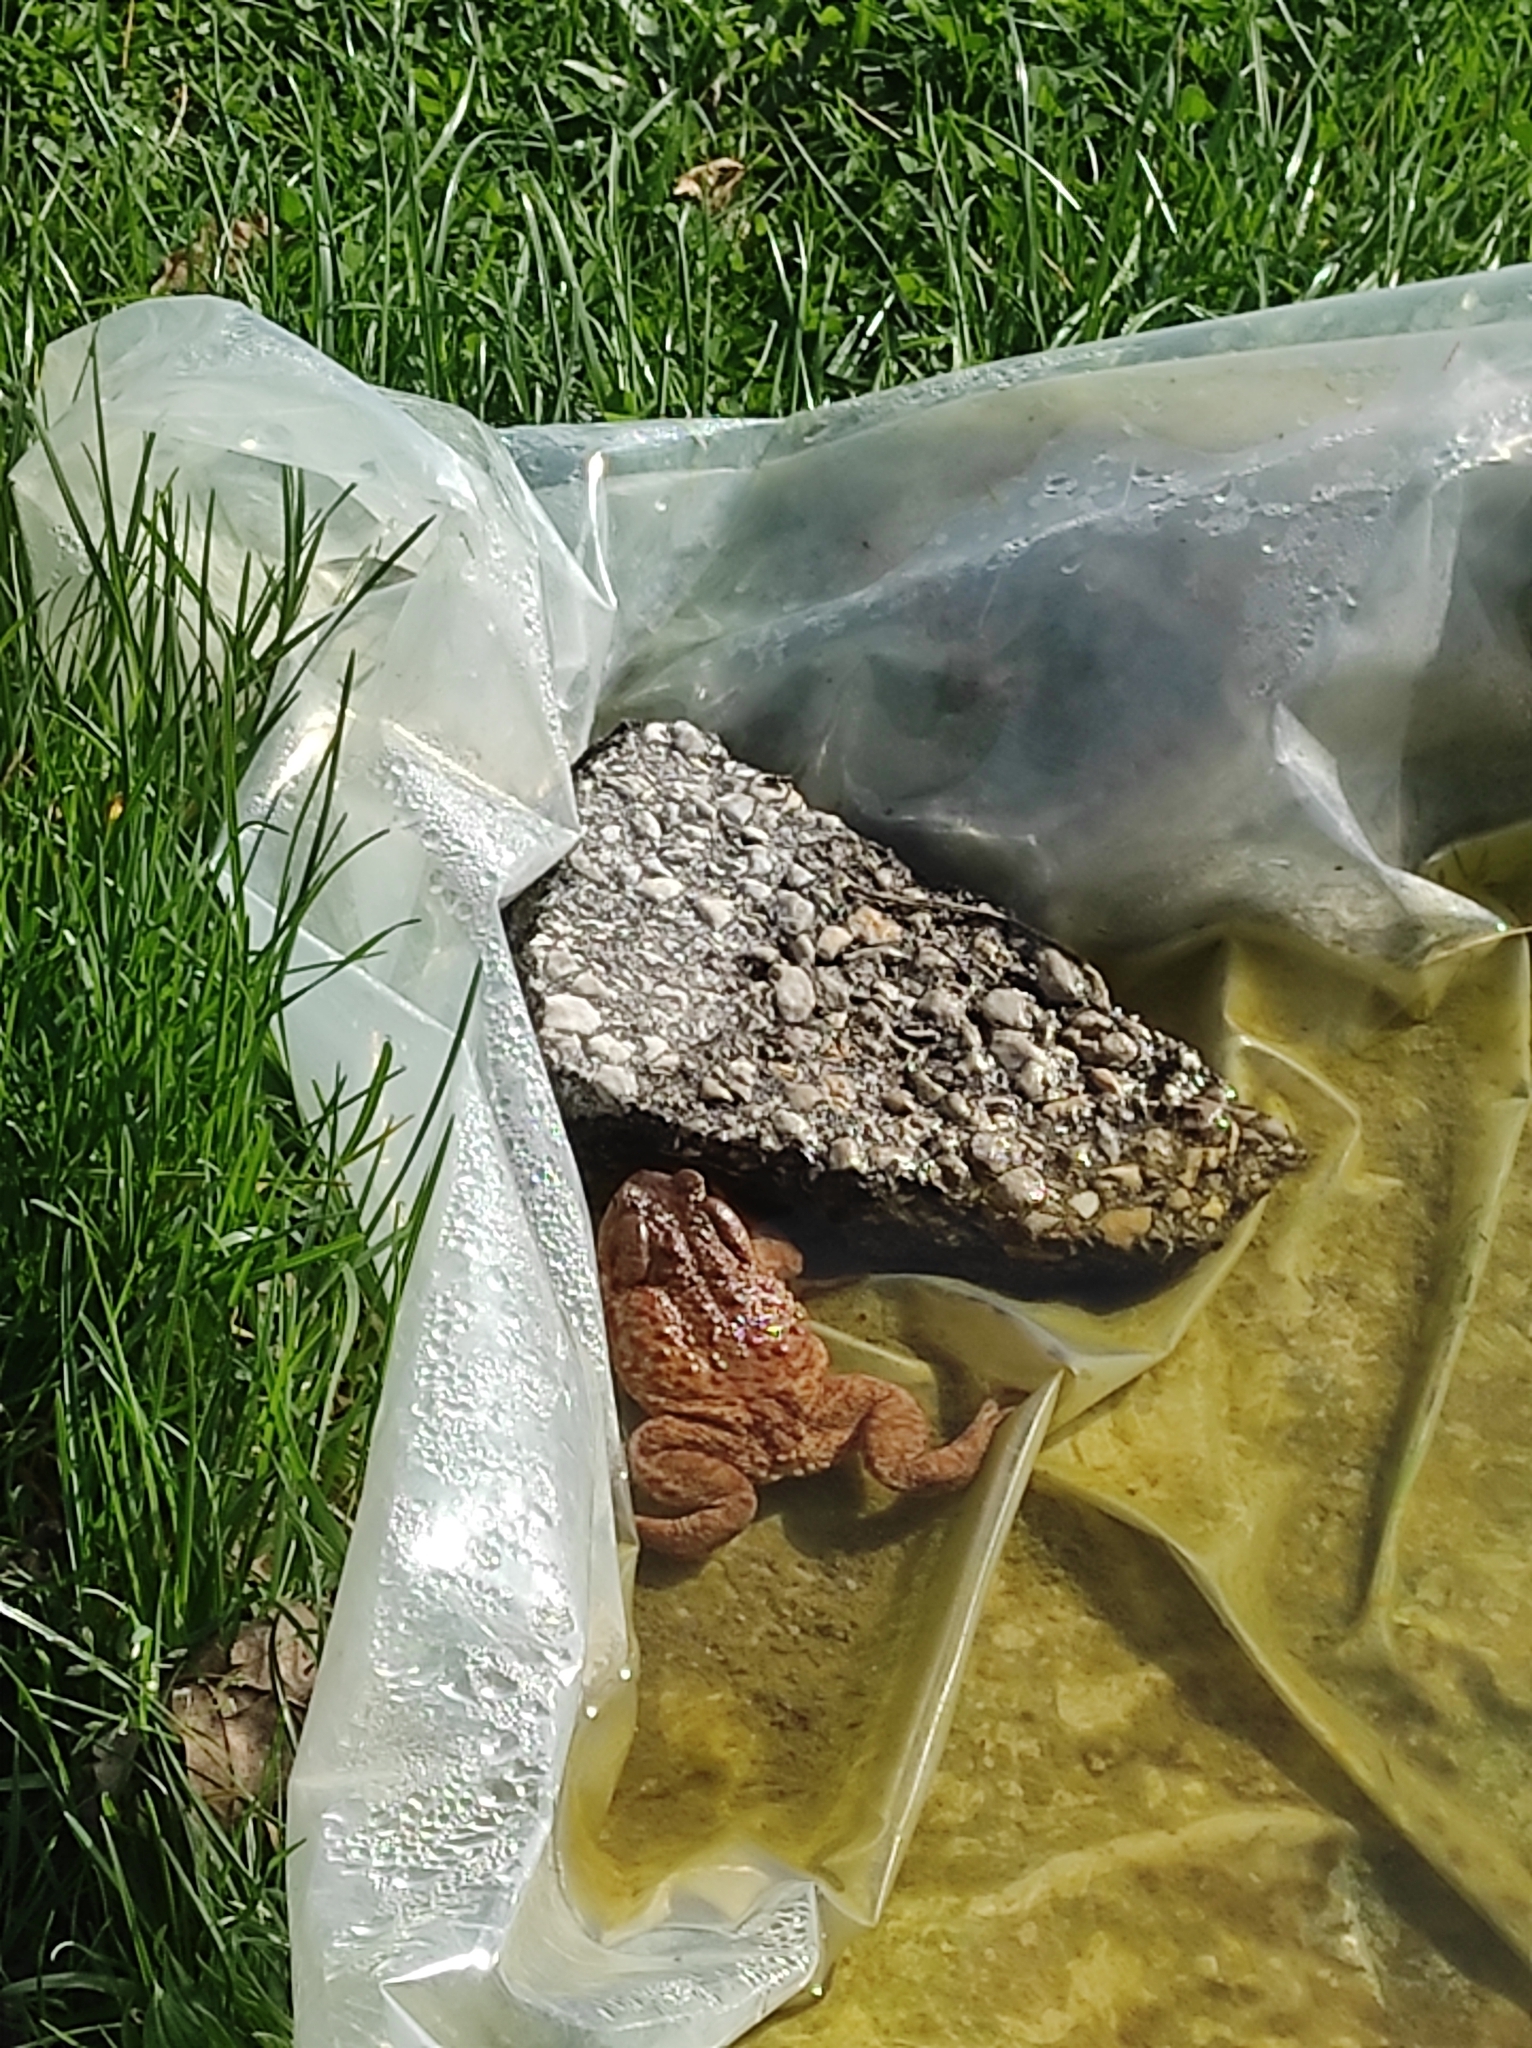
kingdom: Animalia
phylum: Chordata
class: Amphibia
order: Anura
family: Bufonidae
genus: Bufo
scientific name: Bufo bufo
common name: Common toad
